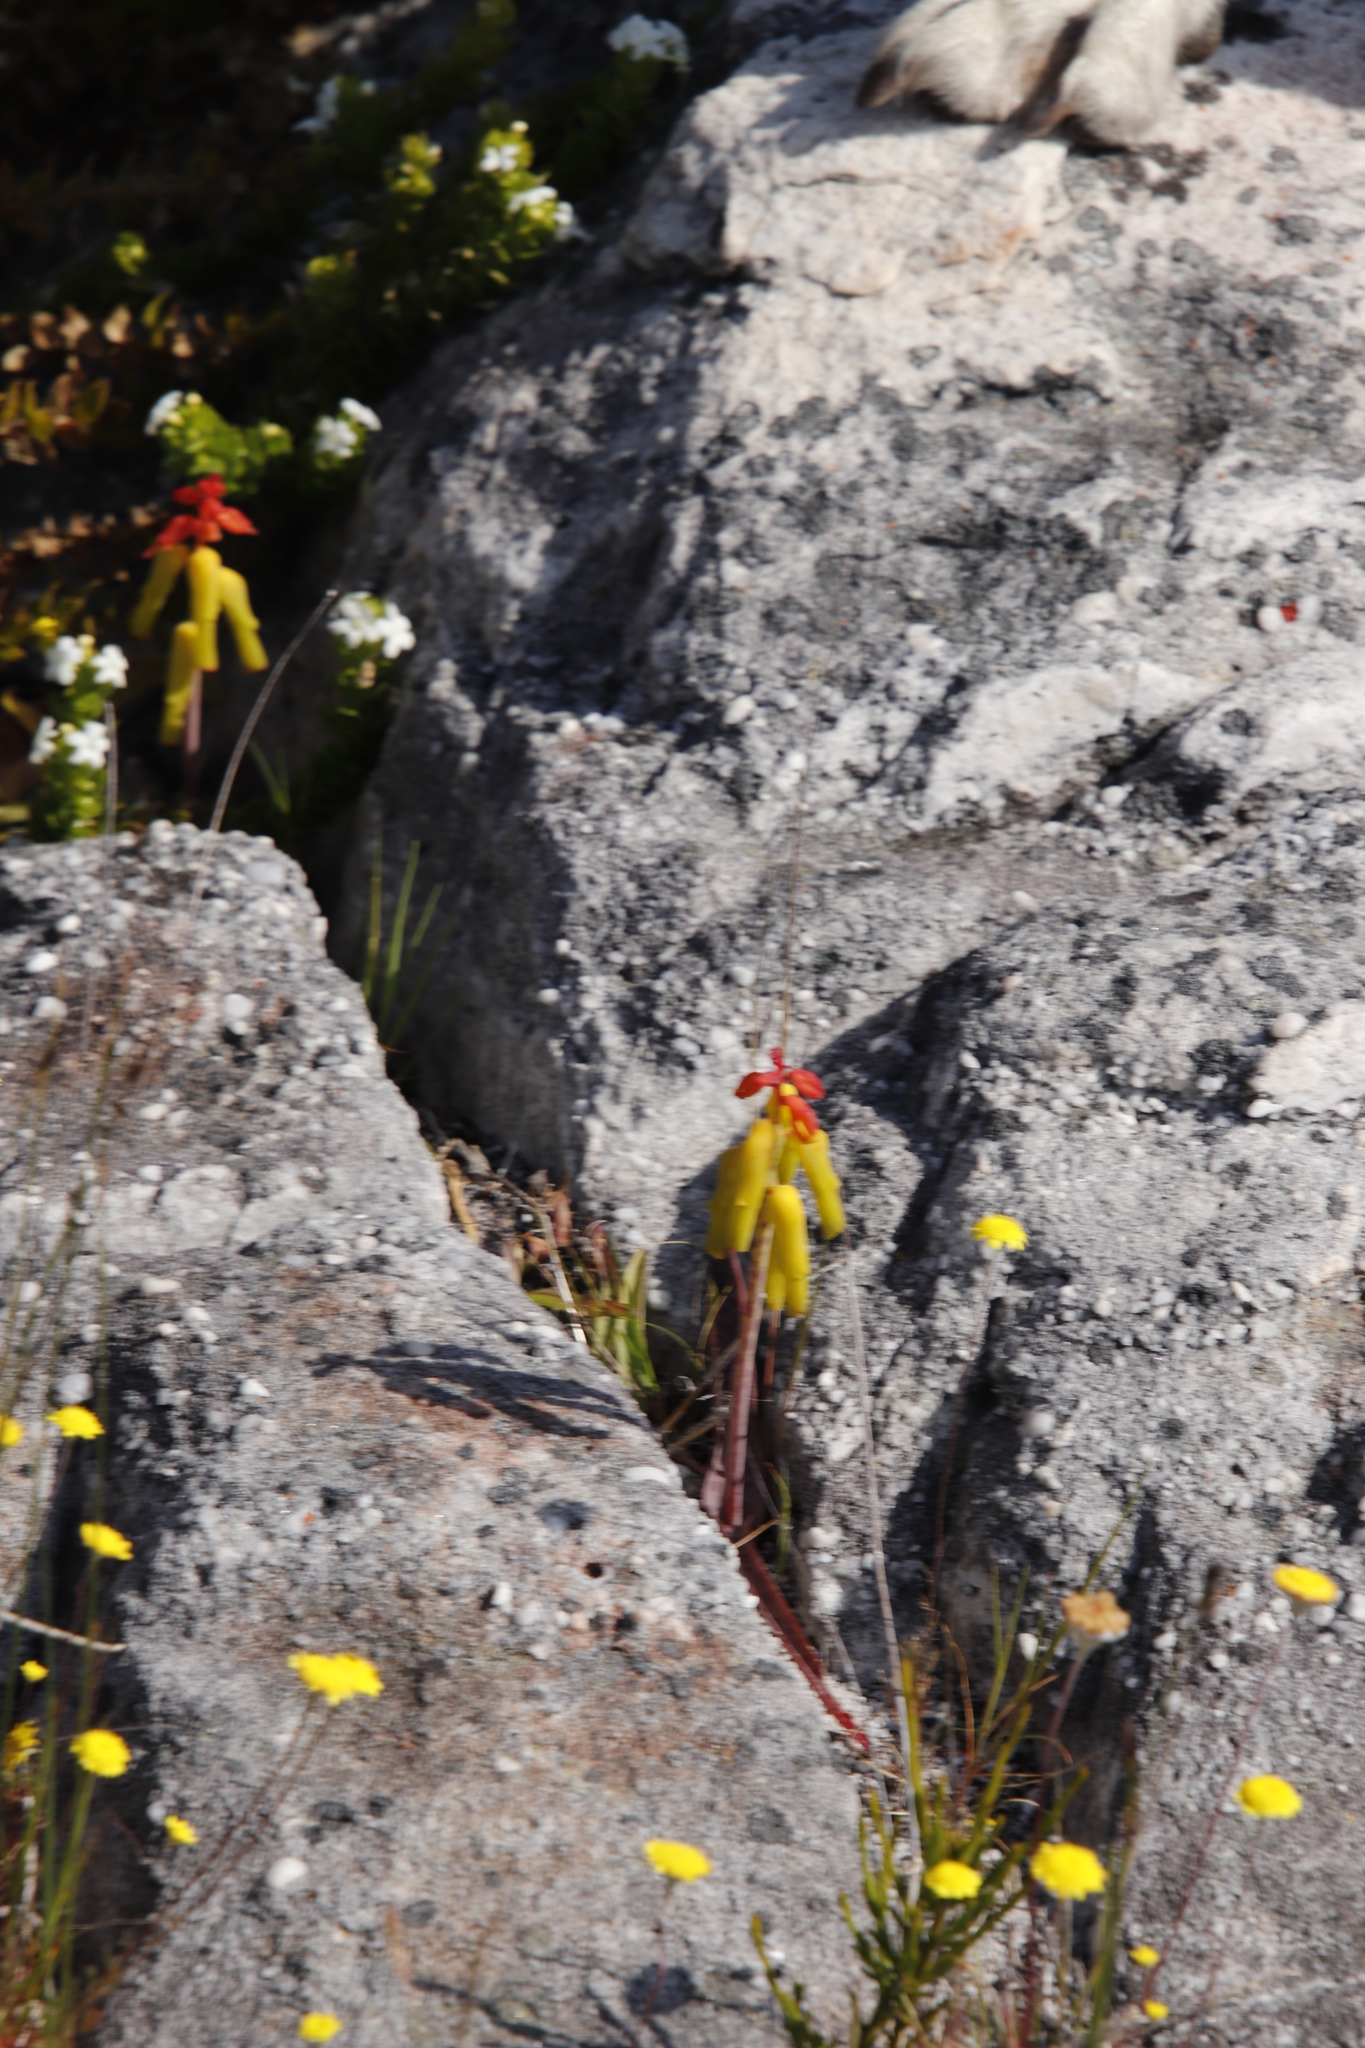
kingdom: Plantae
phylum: Tracheophyta
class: Liliopsida
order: Asparagales
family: Asparagaceae
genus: Lachenalia
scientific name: Lachenalia luteola
